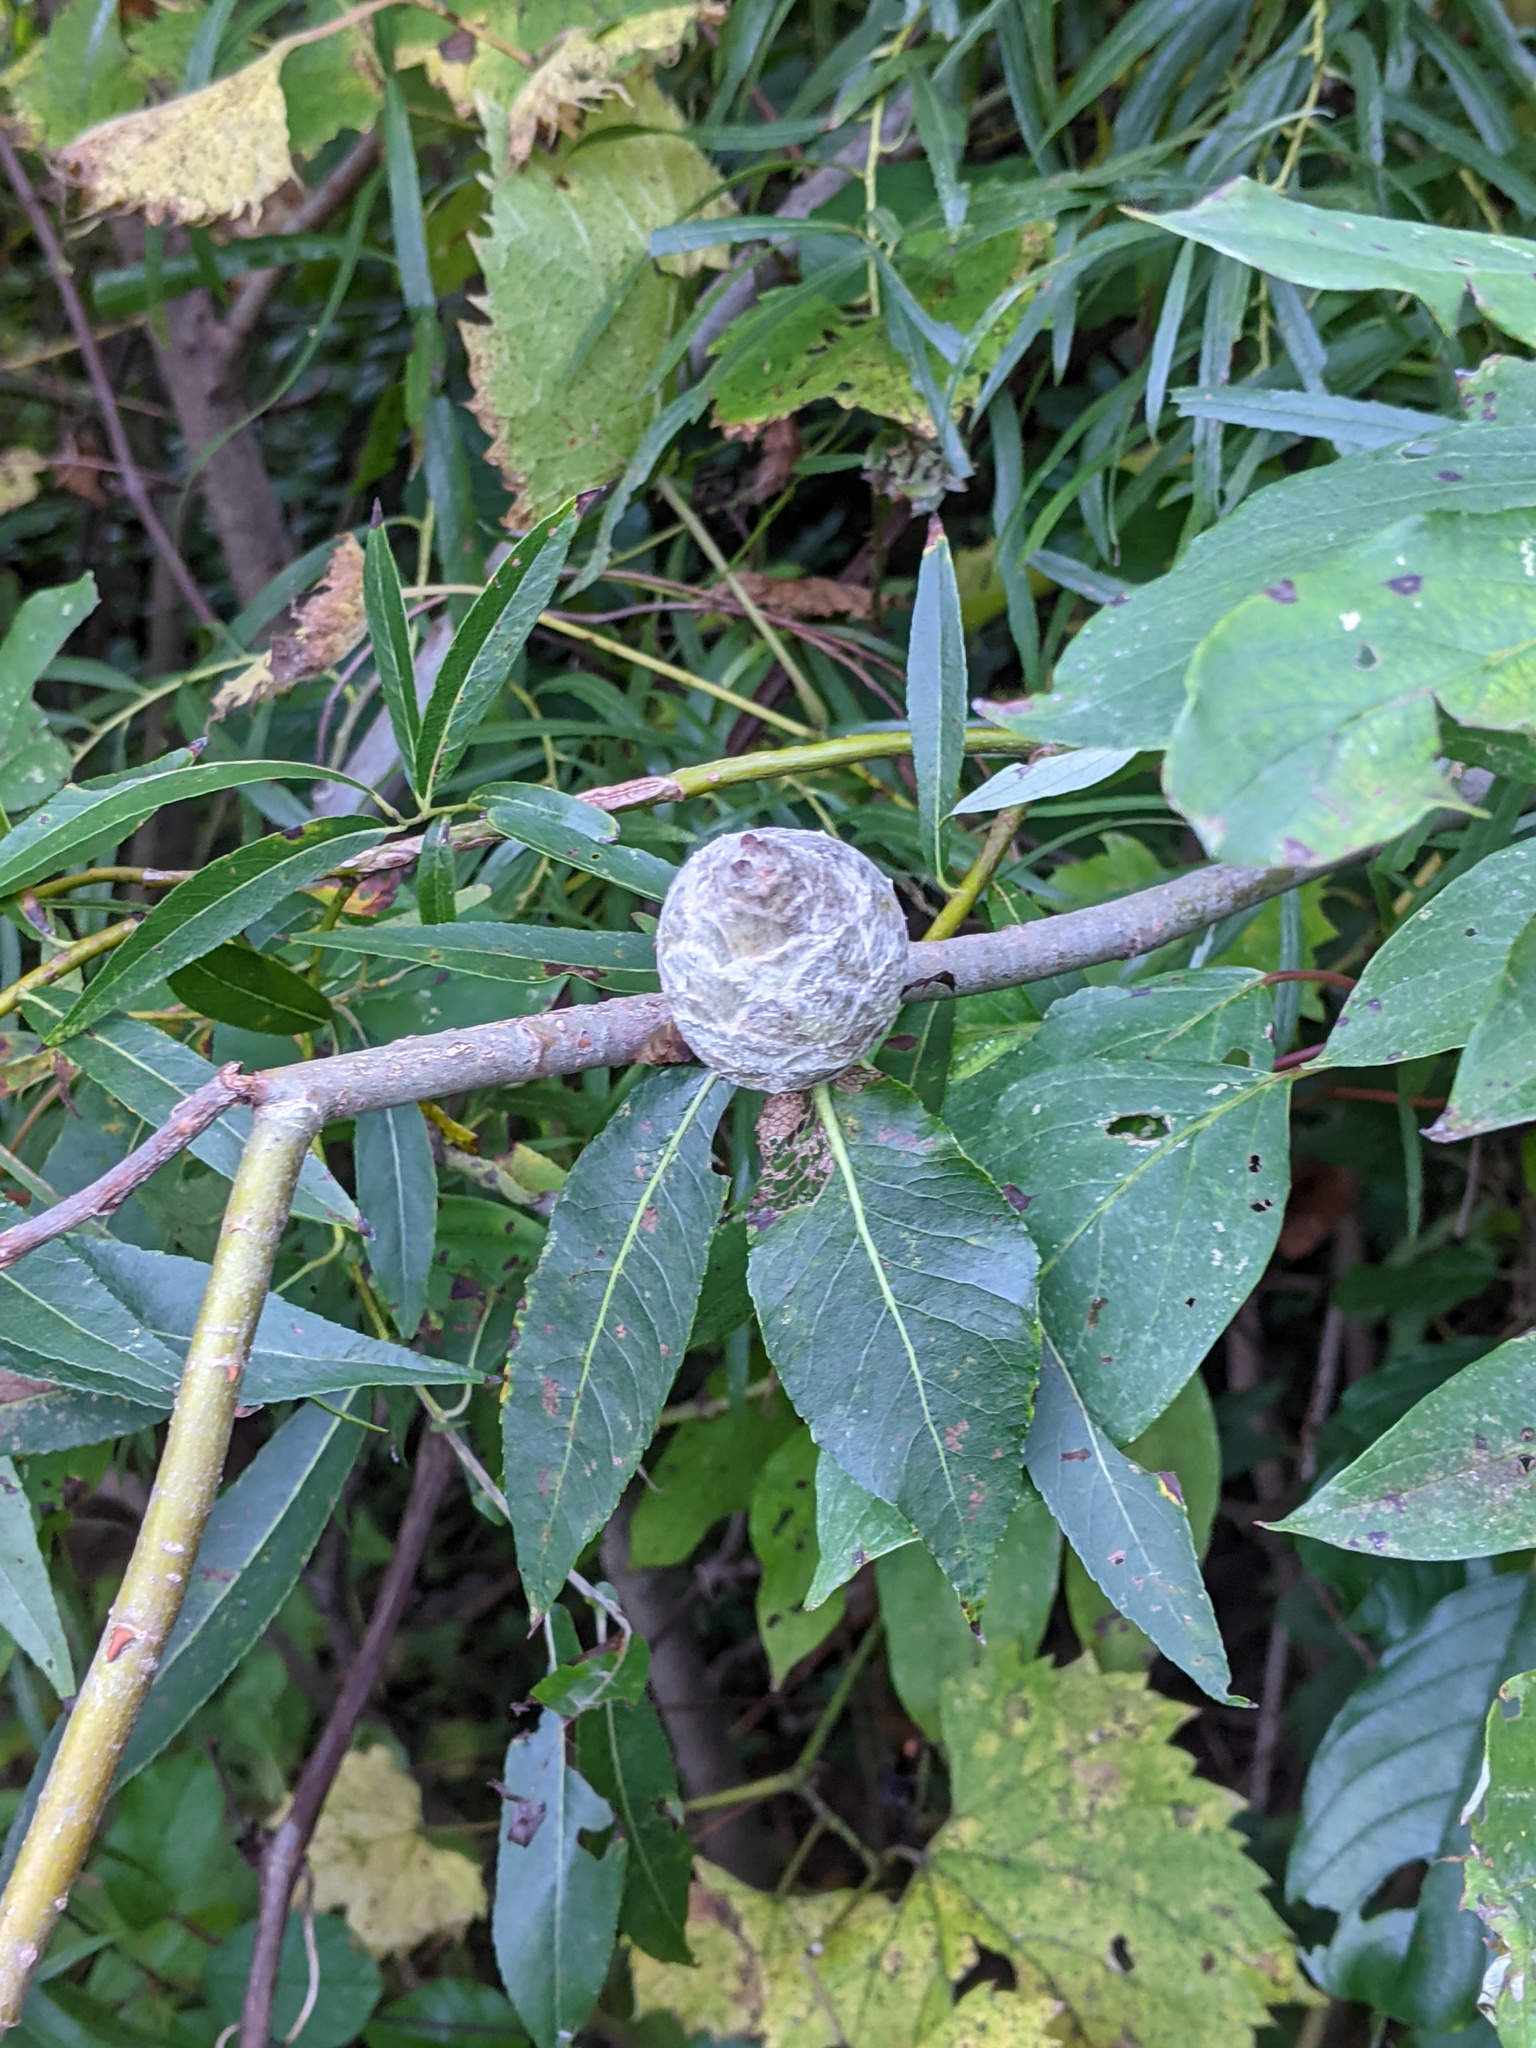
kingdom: Animalia
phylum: Arthropoda
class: Insecta
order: Diptera
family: Cecidomyiidae
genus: Rabdophaga
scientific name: Rabdophaga strobiloides
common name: Willow pinecone gall midge
